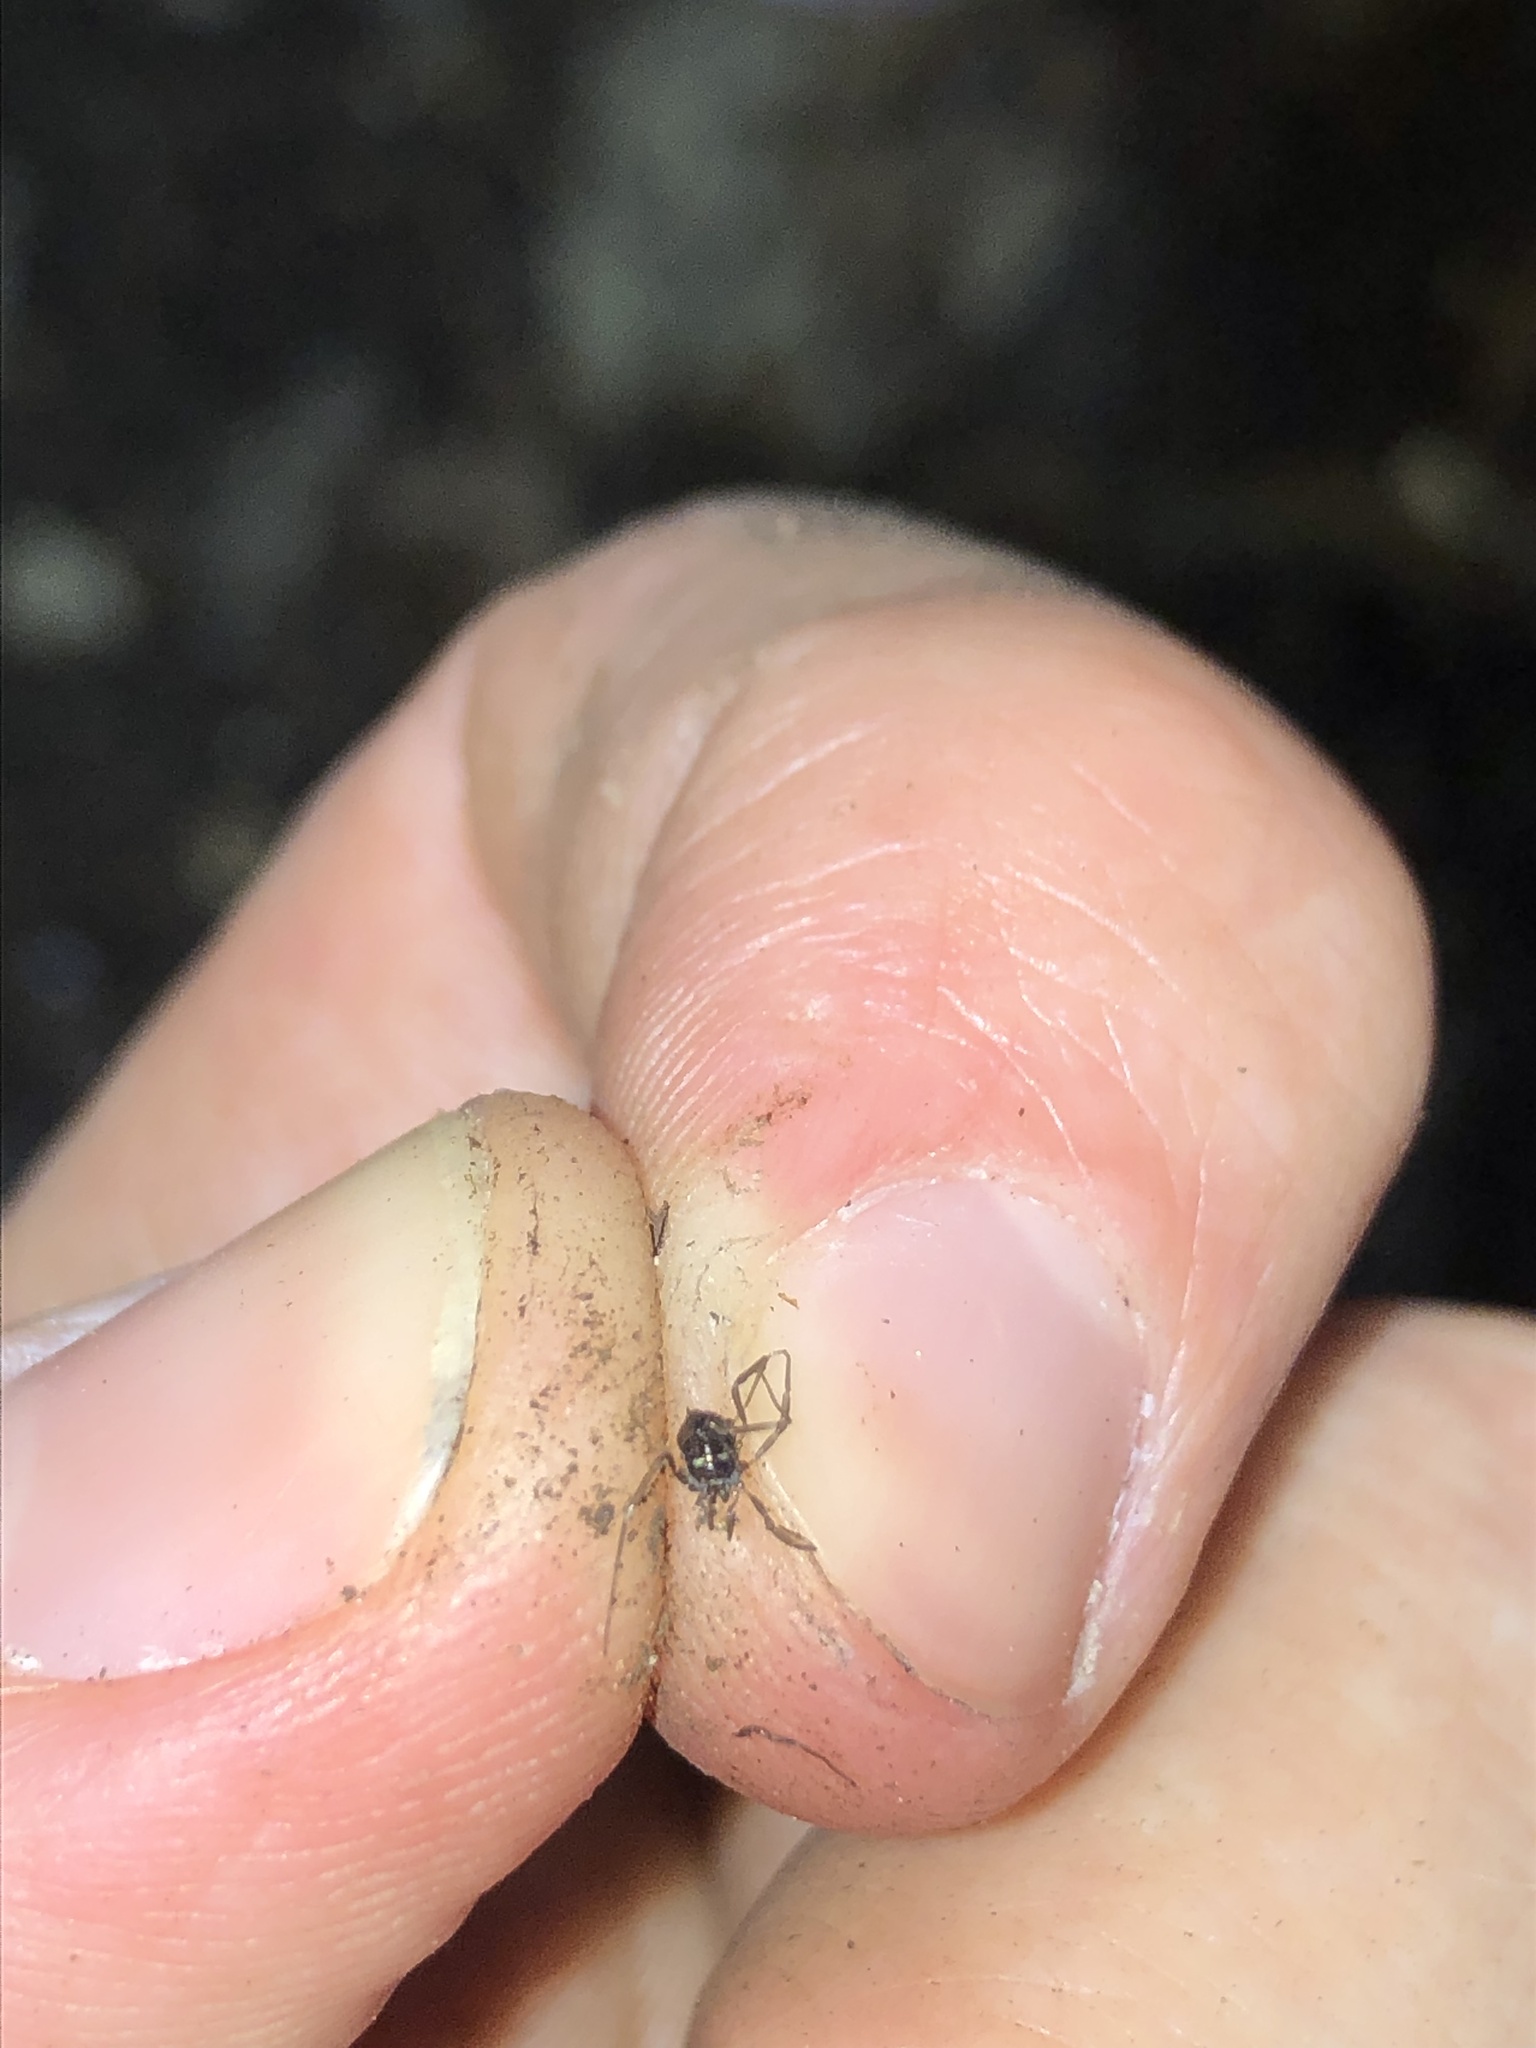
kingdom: Animalia
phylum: Arthropoda
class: Arachnida
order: Opiliones
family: Nemastomatidae
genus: Carinostoma
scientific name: Carinostoma carinatum
